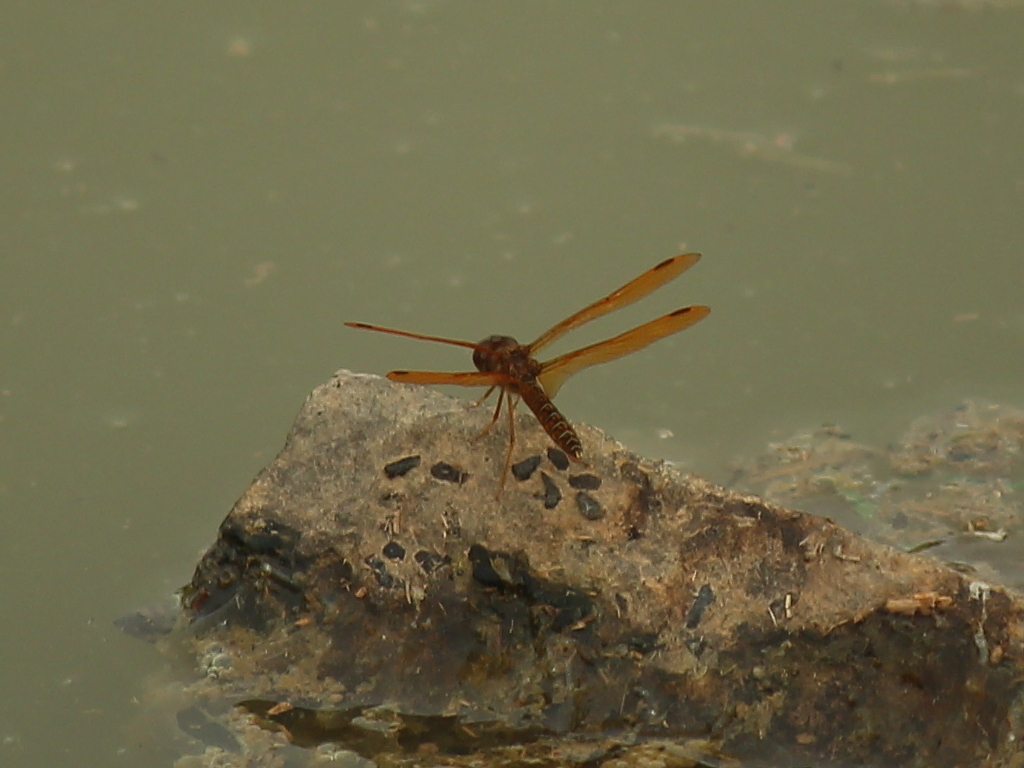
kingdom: Animalia
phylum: Arthropoda
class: Insecta
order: Odonata
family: Libellulidae
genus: Perithemis
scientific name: Perithemis tenera
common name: Eastern amberwing
